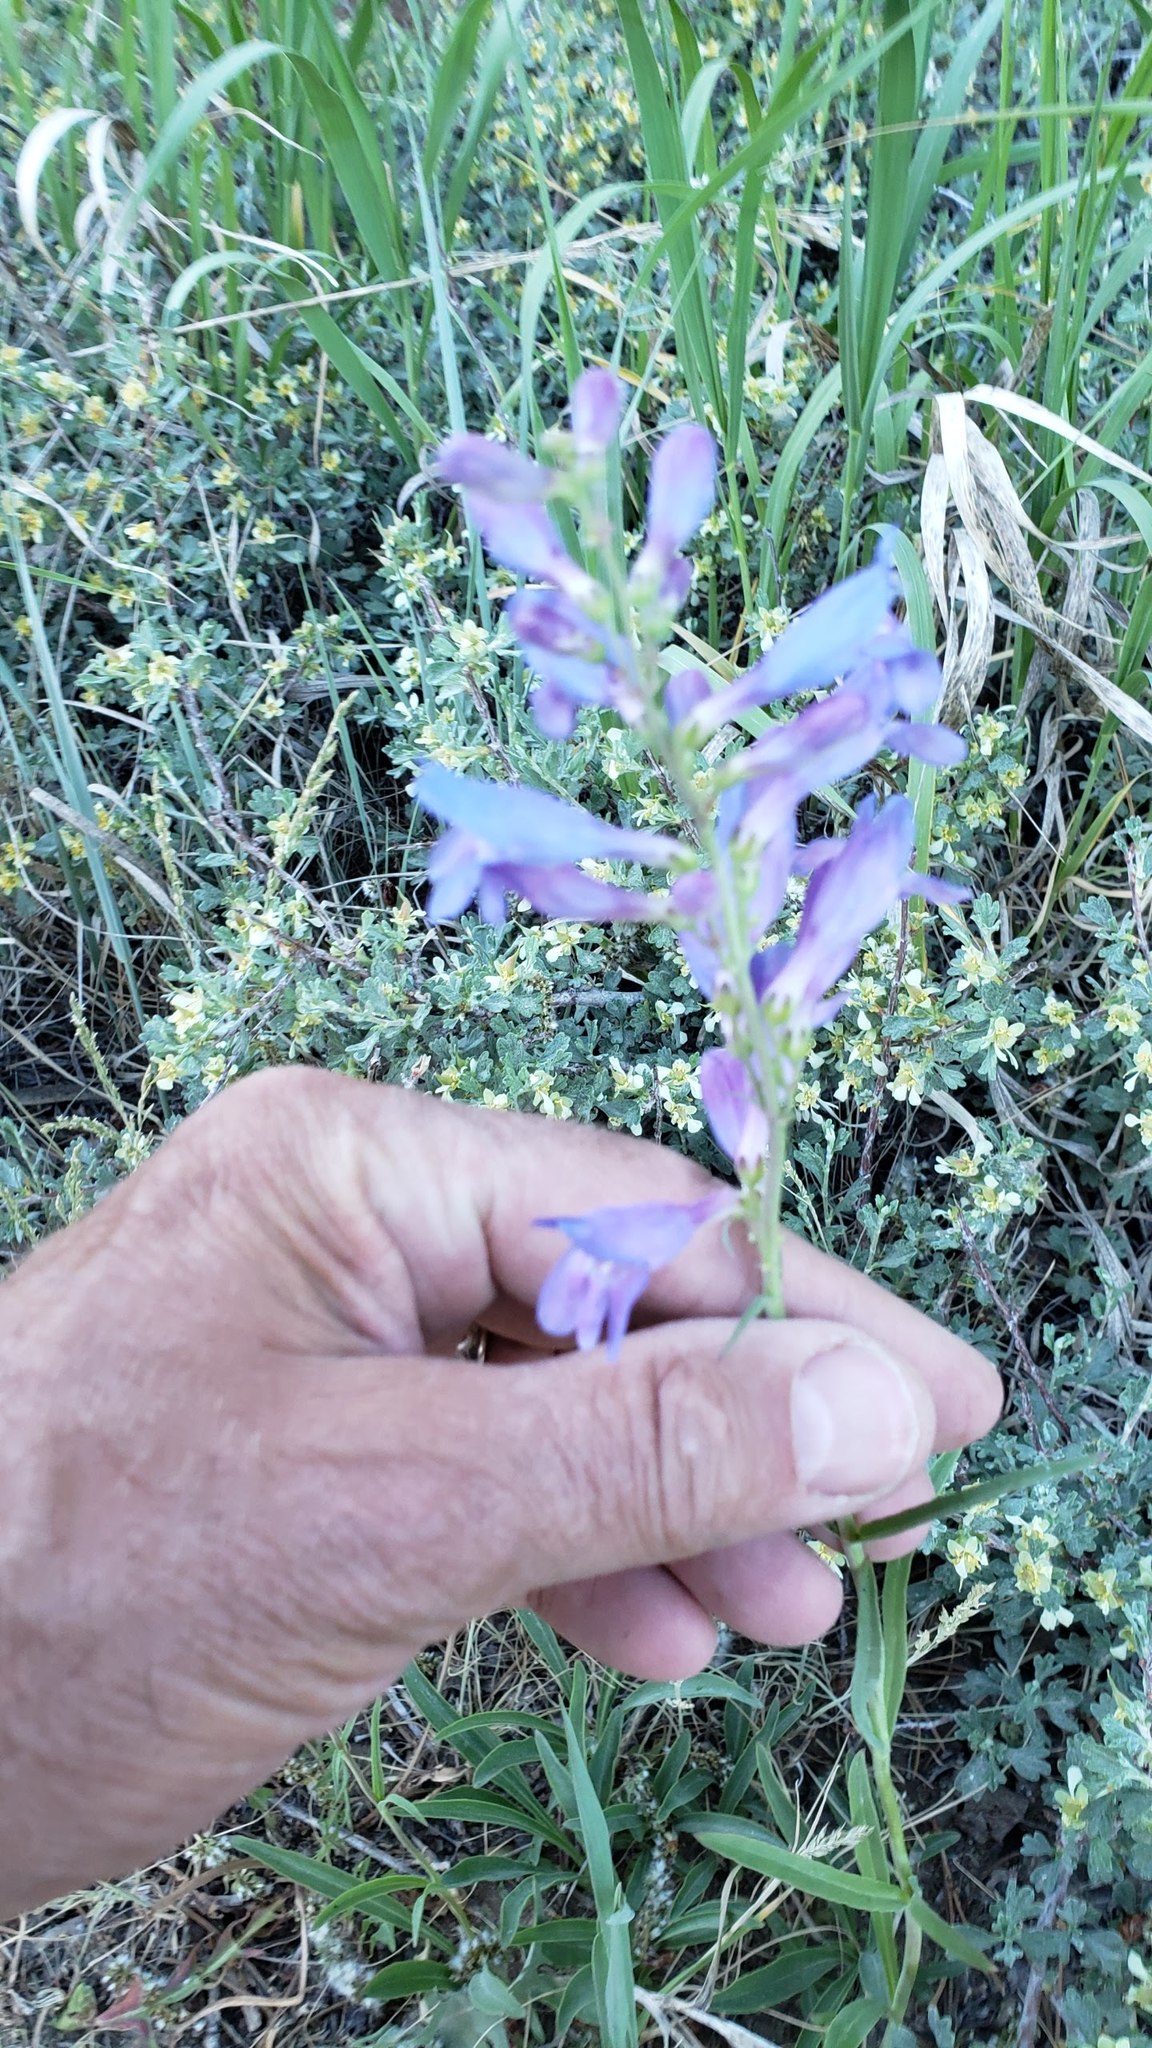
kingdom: Plantae
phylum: Tracheophyta
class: Magnoliopsida
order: Lamiales
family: Plantaginaceae
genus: Penstemon
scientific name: Penstemon strictus
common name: Rocky mountain penstemon
